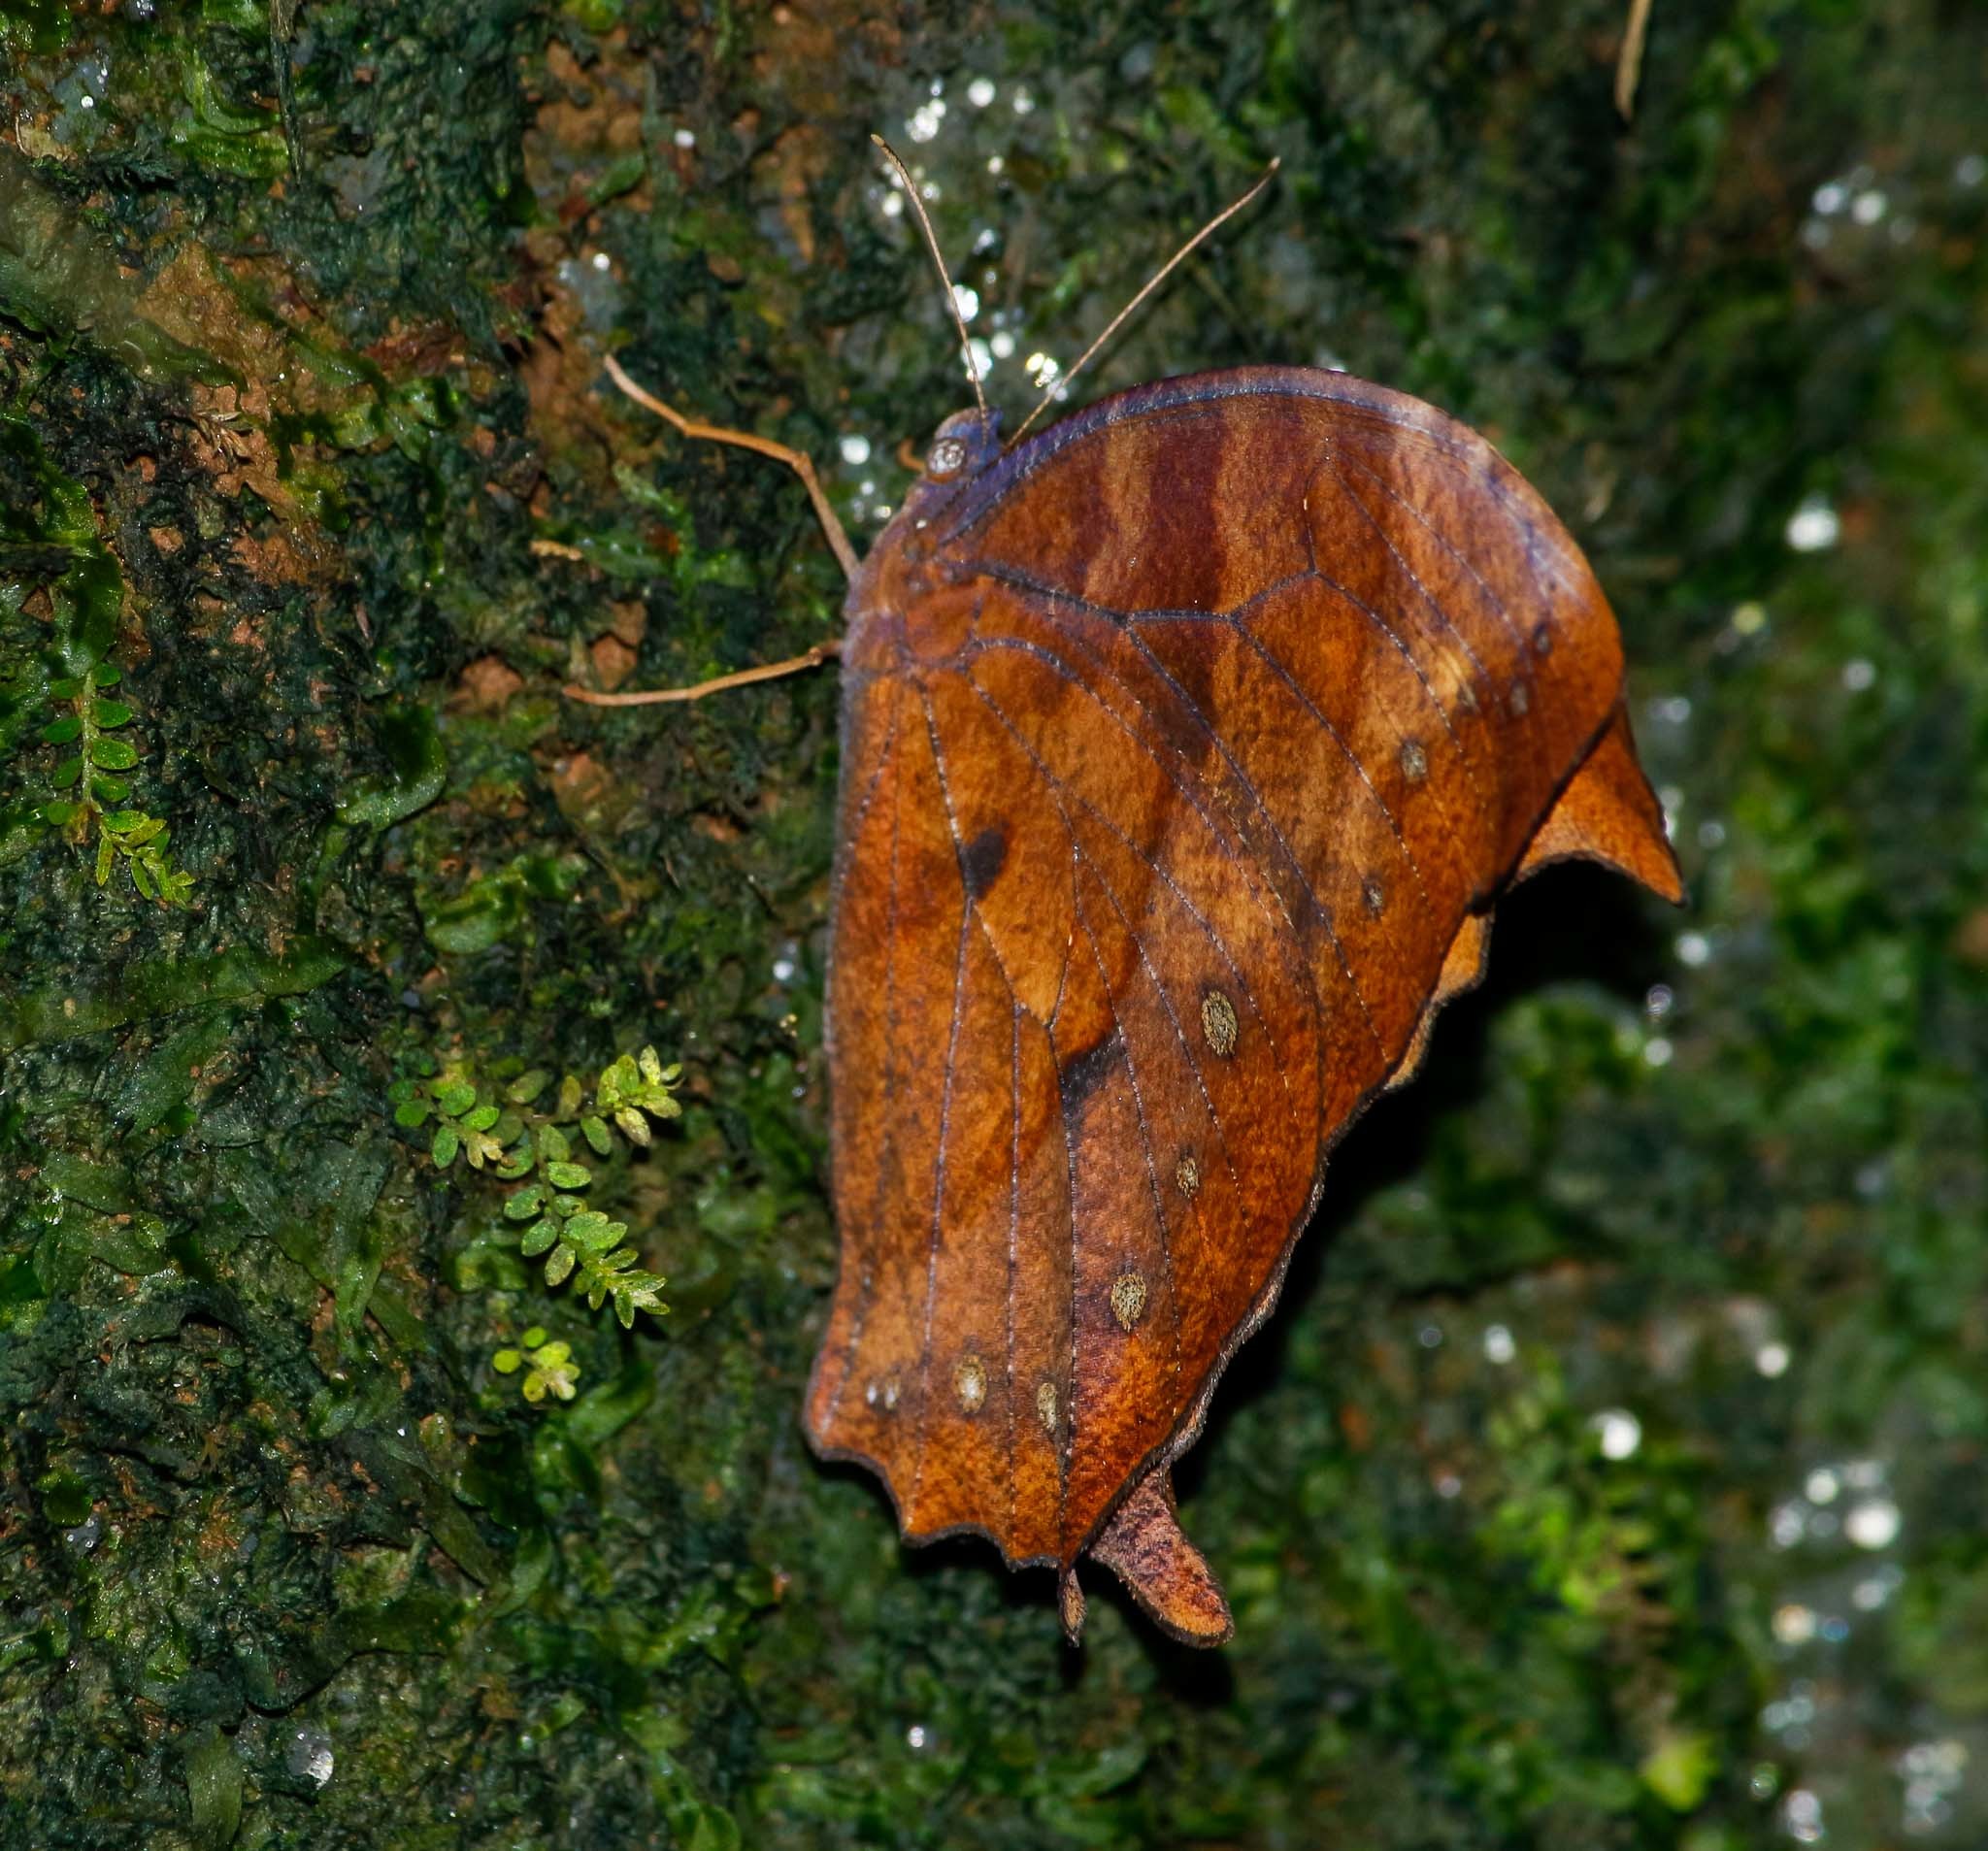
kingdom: Animalia
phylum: Arthropoda
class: Insecta
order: Lepidoptera
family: Nymphalidae
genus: Melanitis
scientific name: Melanitis phedima
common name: Dark evening brown
